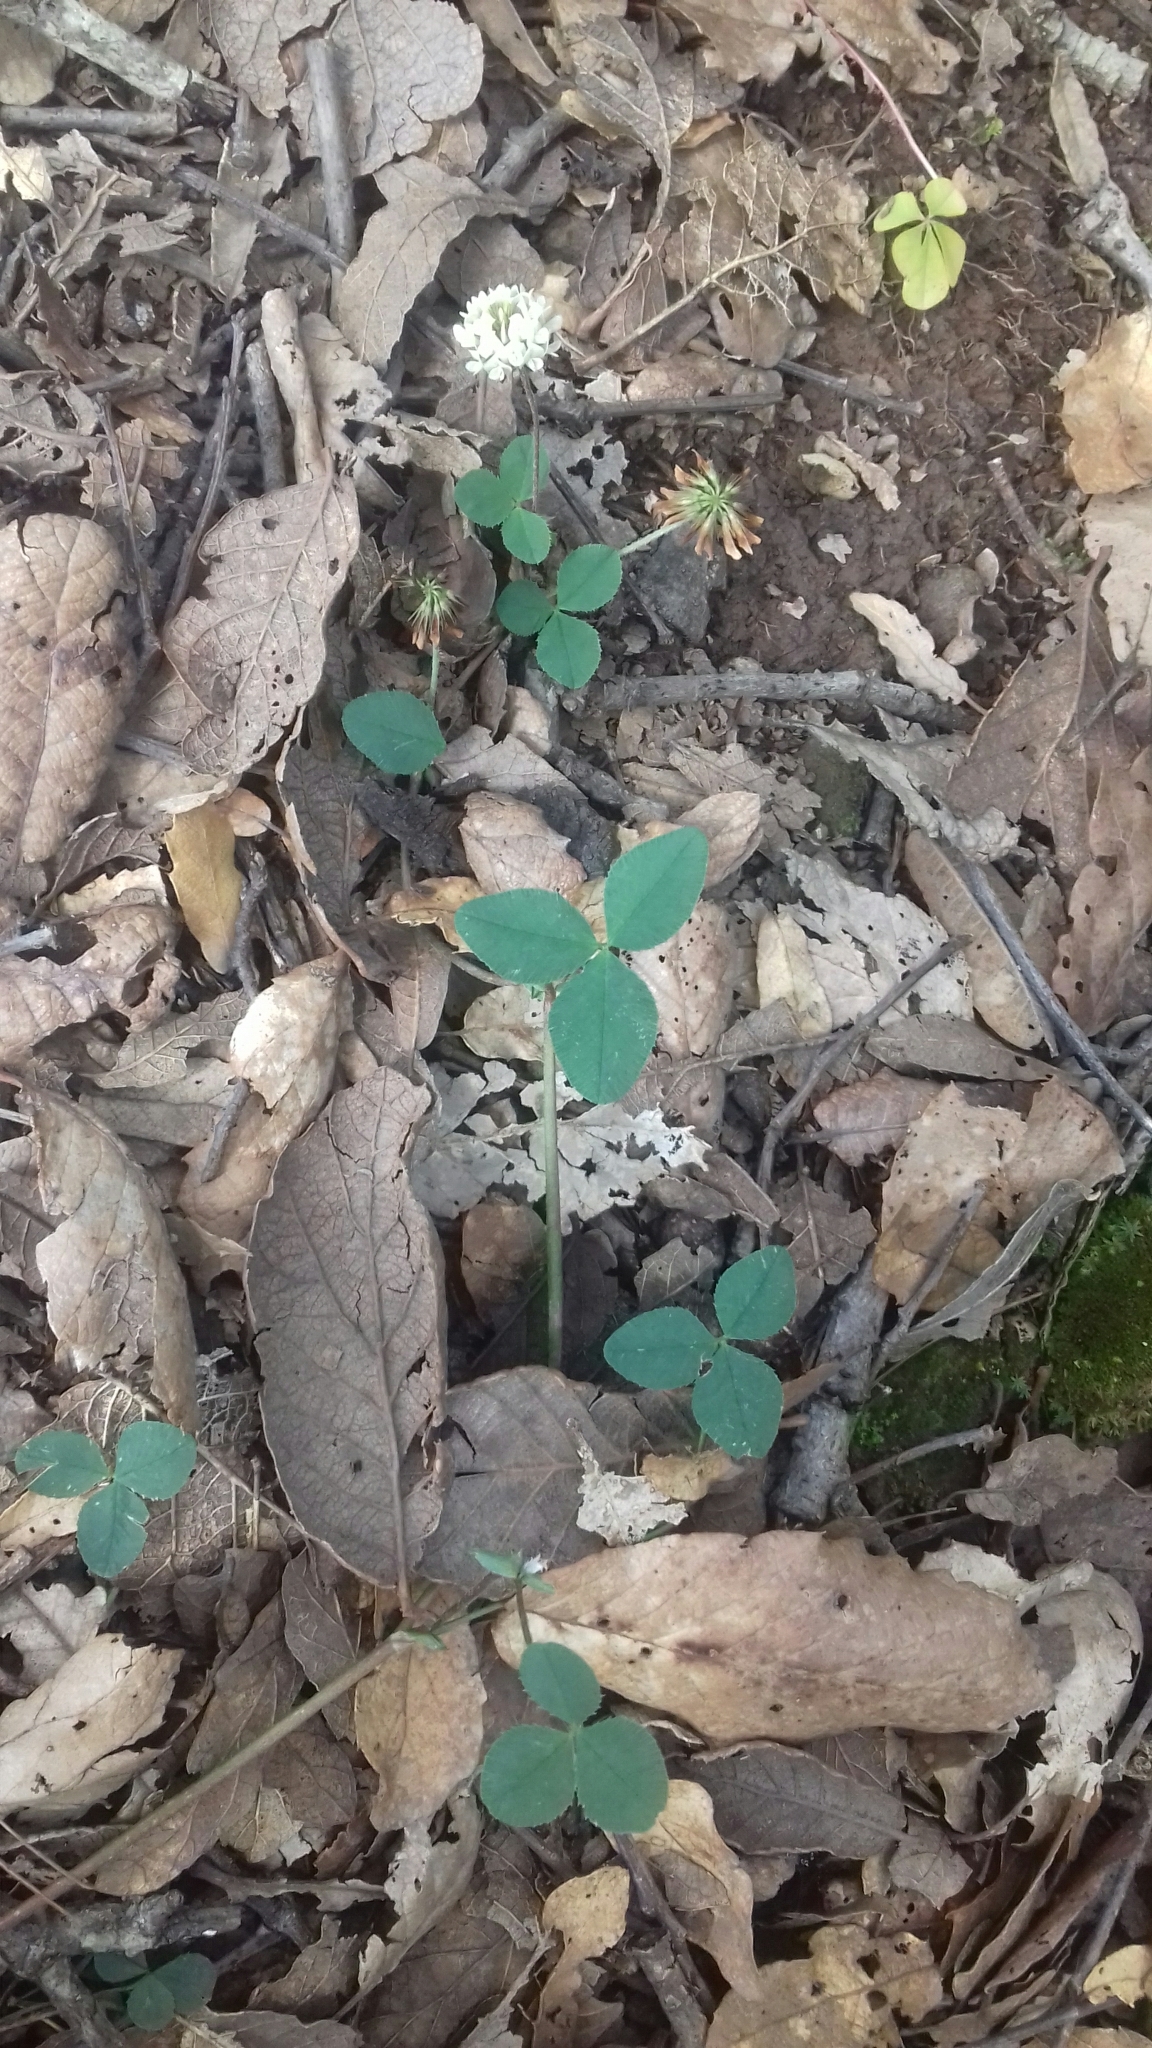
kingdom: Plantae
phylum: Tracheophyta
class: Magnoliopsida
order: Fabales
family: Fabaceae
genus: Trifolium
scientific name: Trifolium repens
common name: White clover
